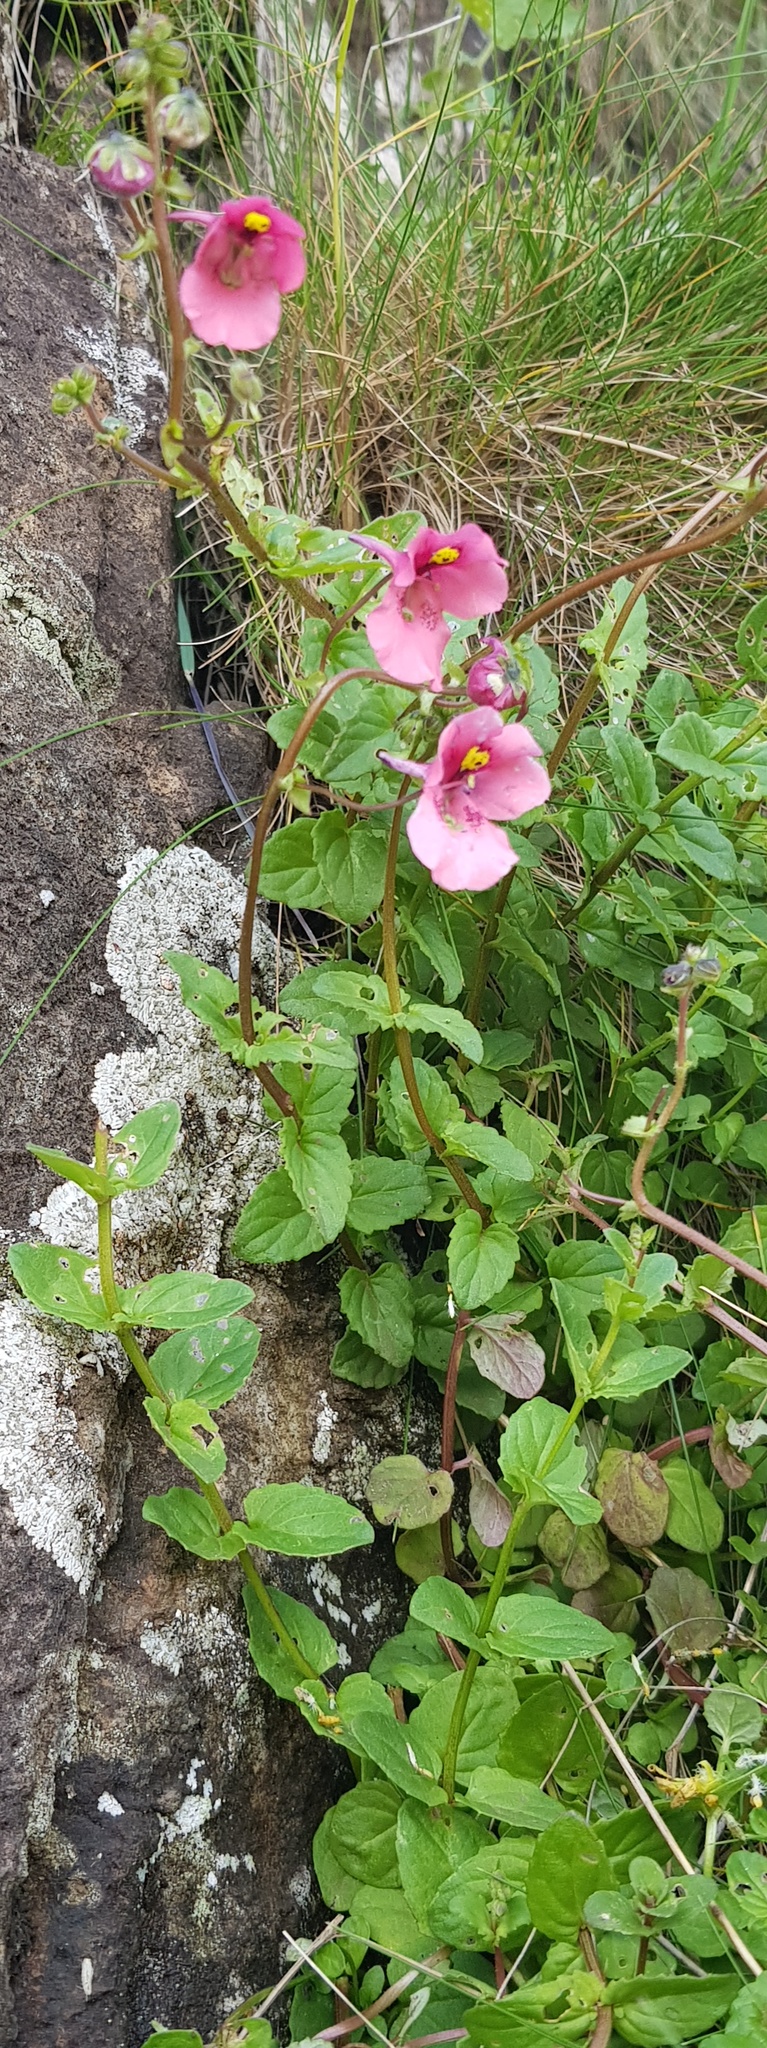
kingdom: Plantae
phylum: Tracheophyta
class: Magnoliopsida
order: Lamiales
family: Scrophulariaceae
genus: Diascia
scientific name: Diascia barberae
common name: Twinspur
